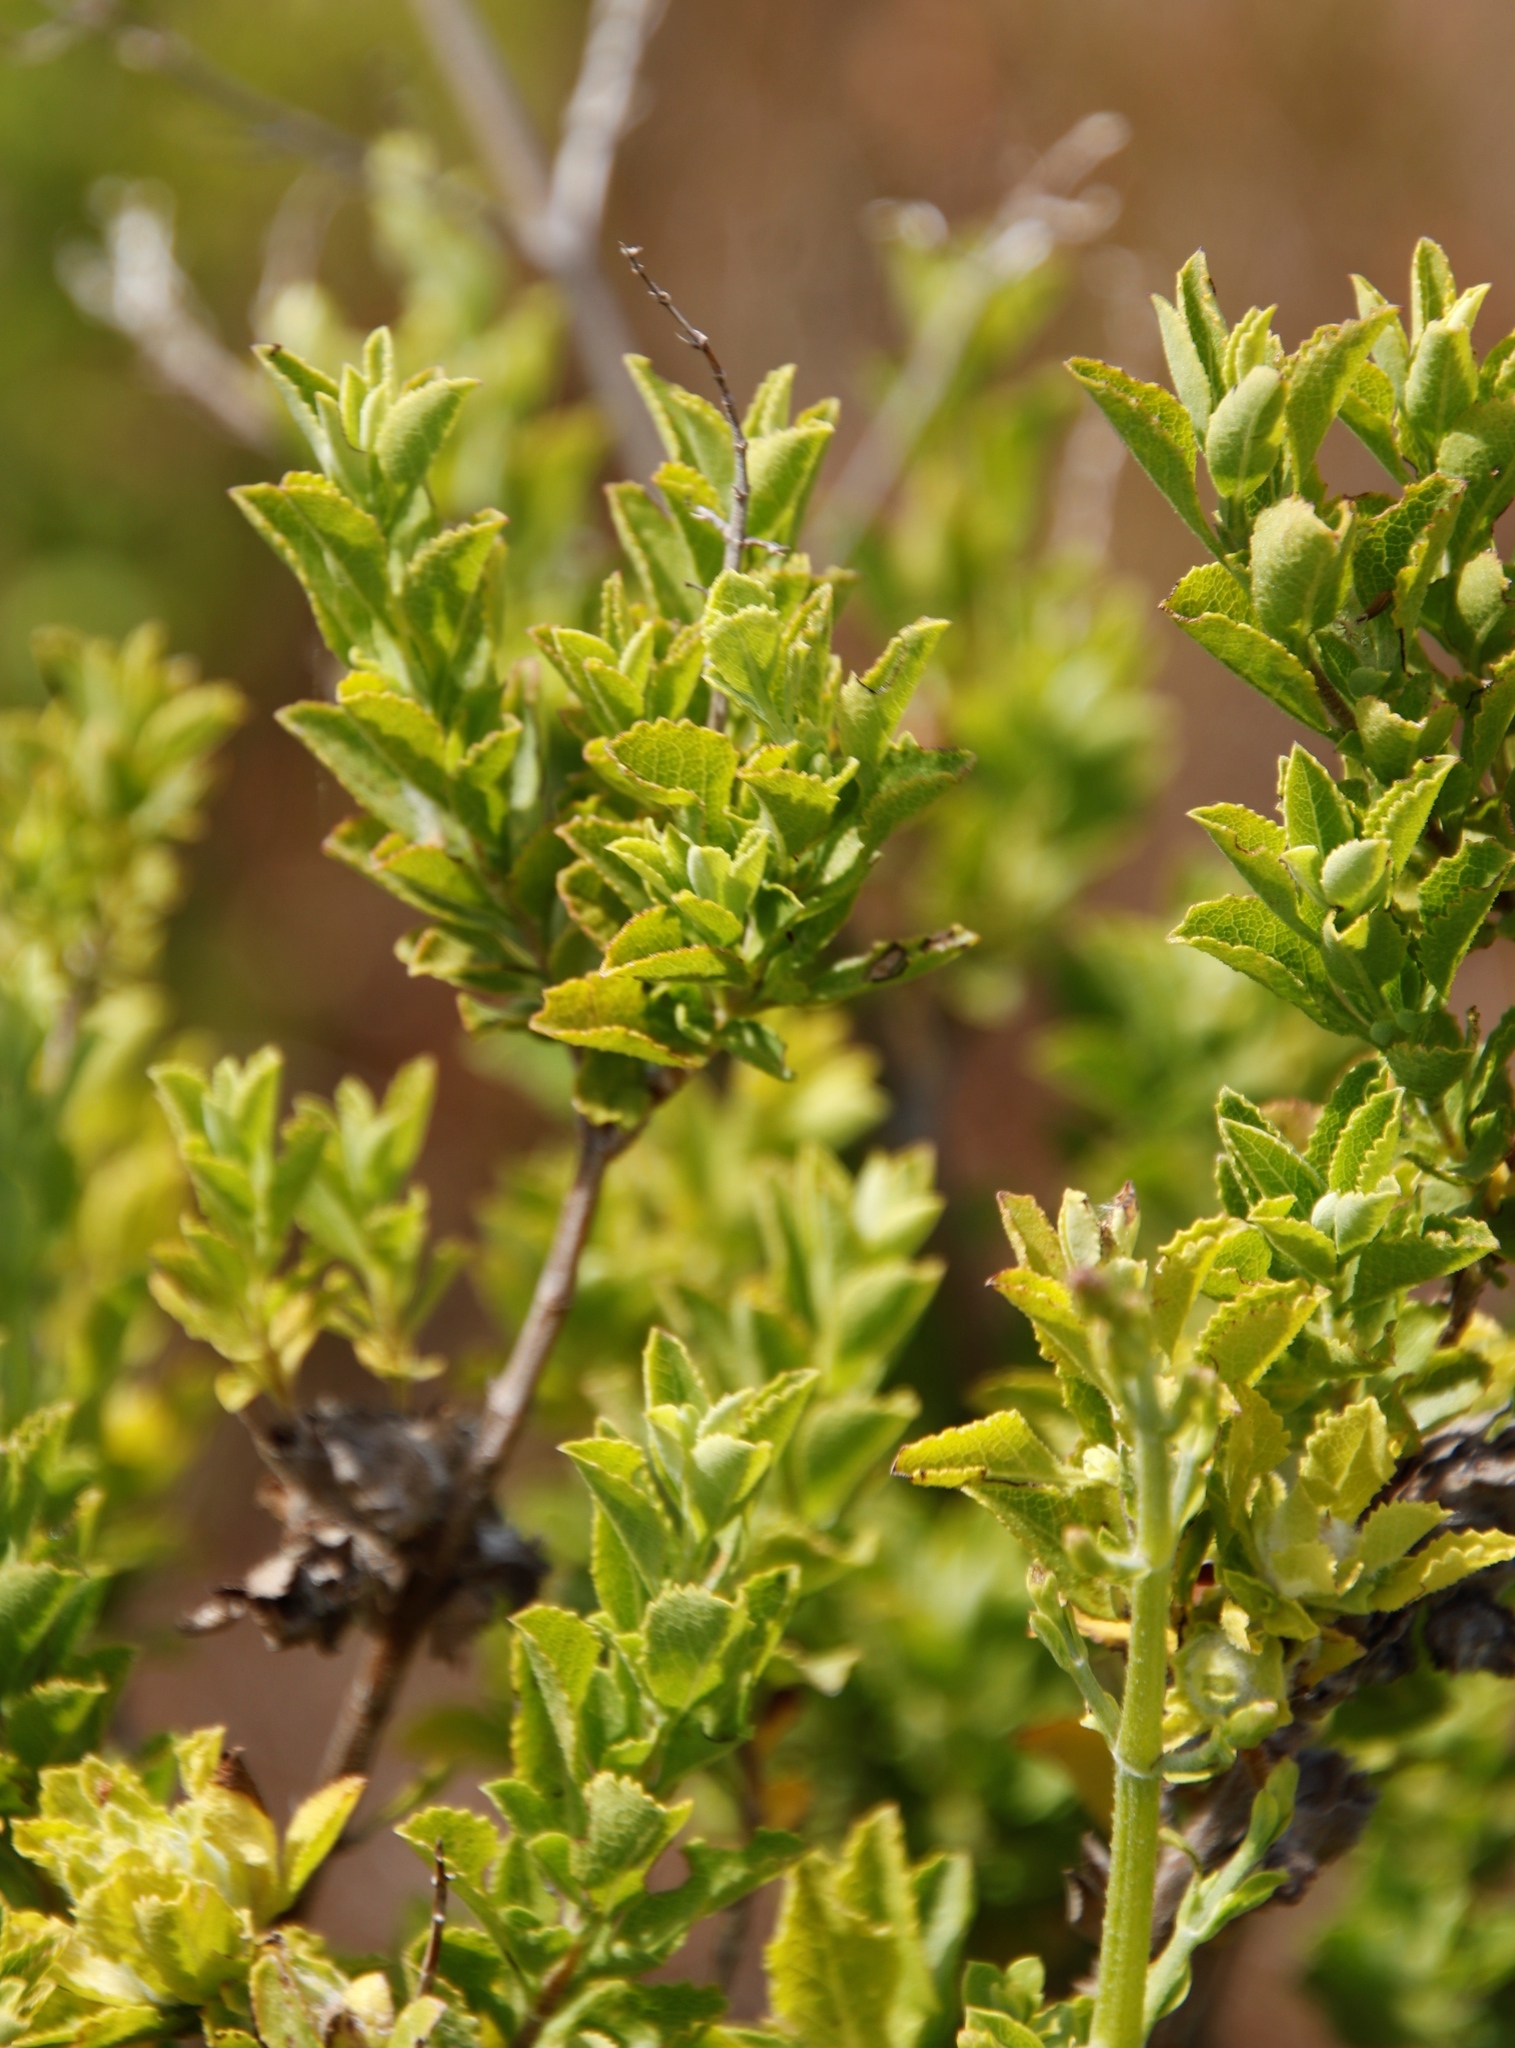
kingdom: Plantae
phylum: Tracheophyta
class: Magnoliopsida
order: Lamiales
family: Lamiaceae
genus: Salvia
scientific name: Salvia chamelaeagnea
